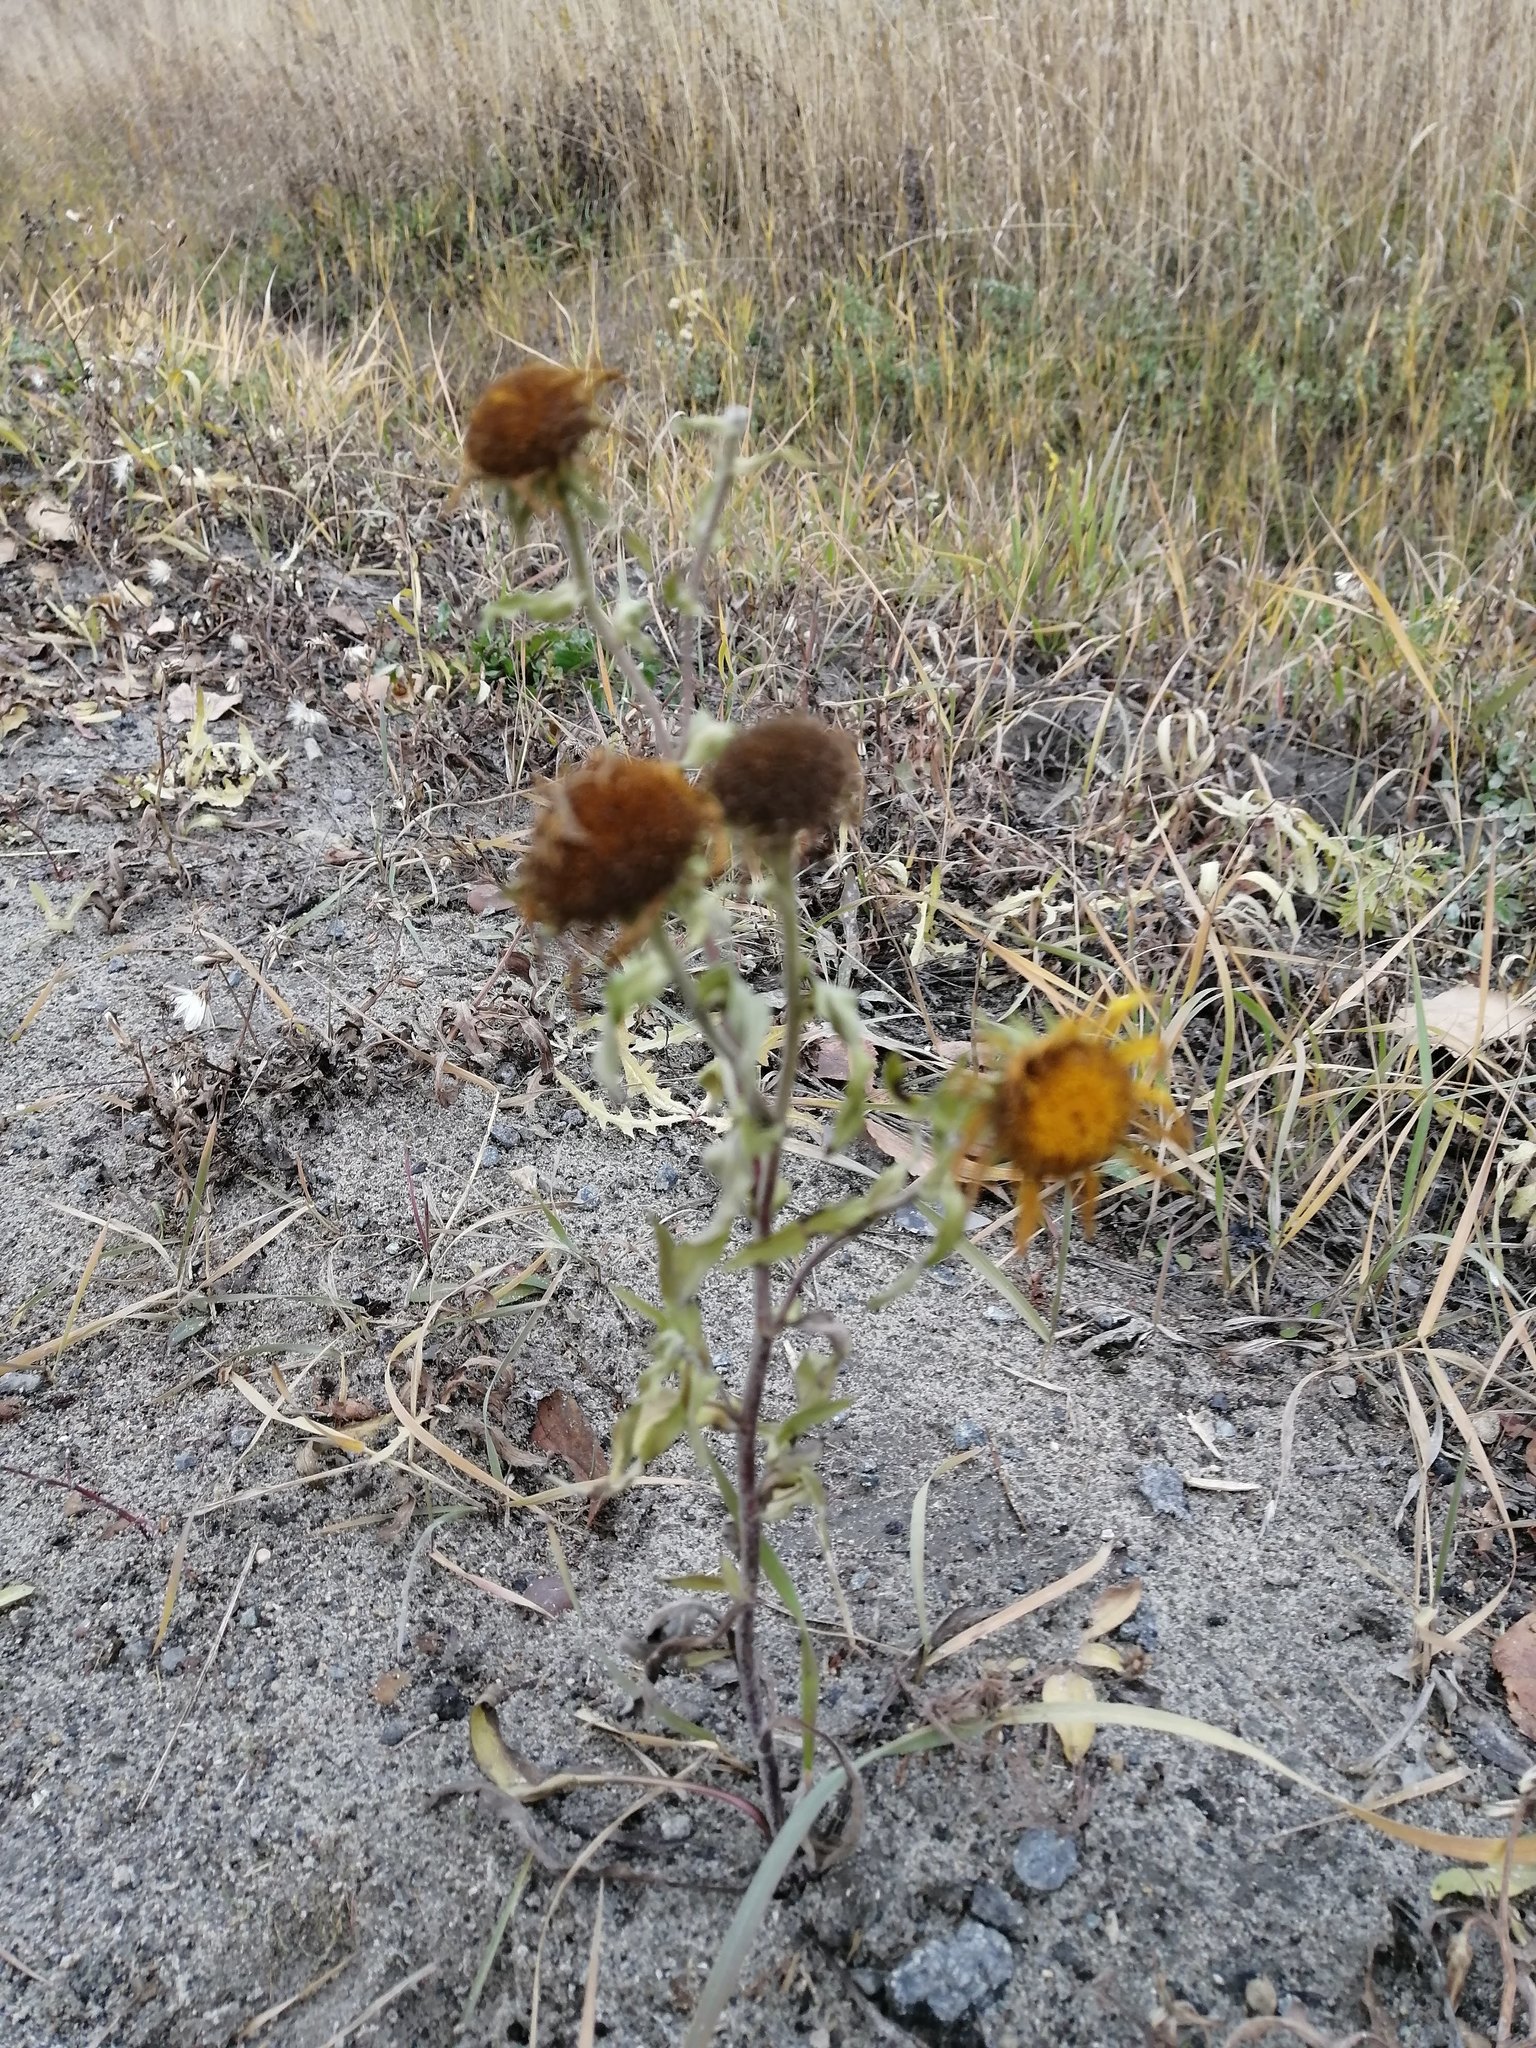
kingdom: Plantae
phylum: Tracheophyta
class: Magnoliopsida
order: Asterales
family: Asteraceae
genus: Pentanema
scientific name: Pentanema britannicum
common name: British elecampane
